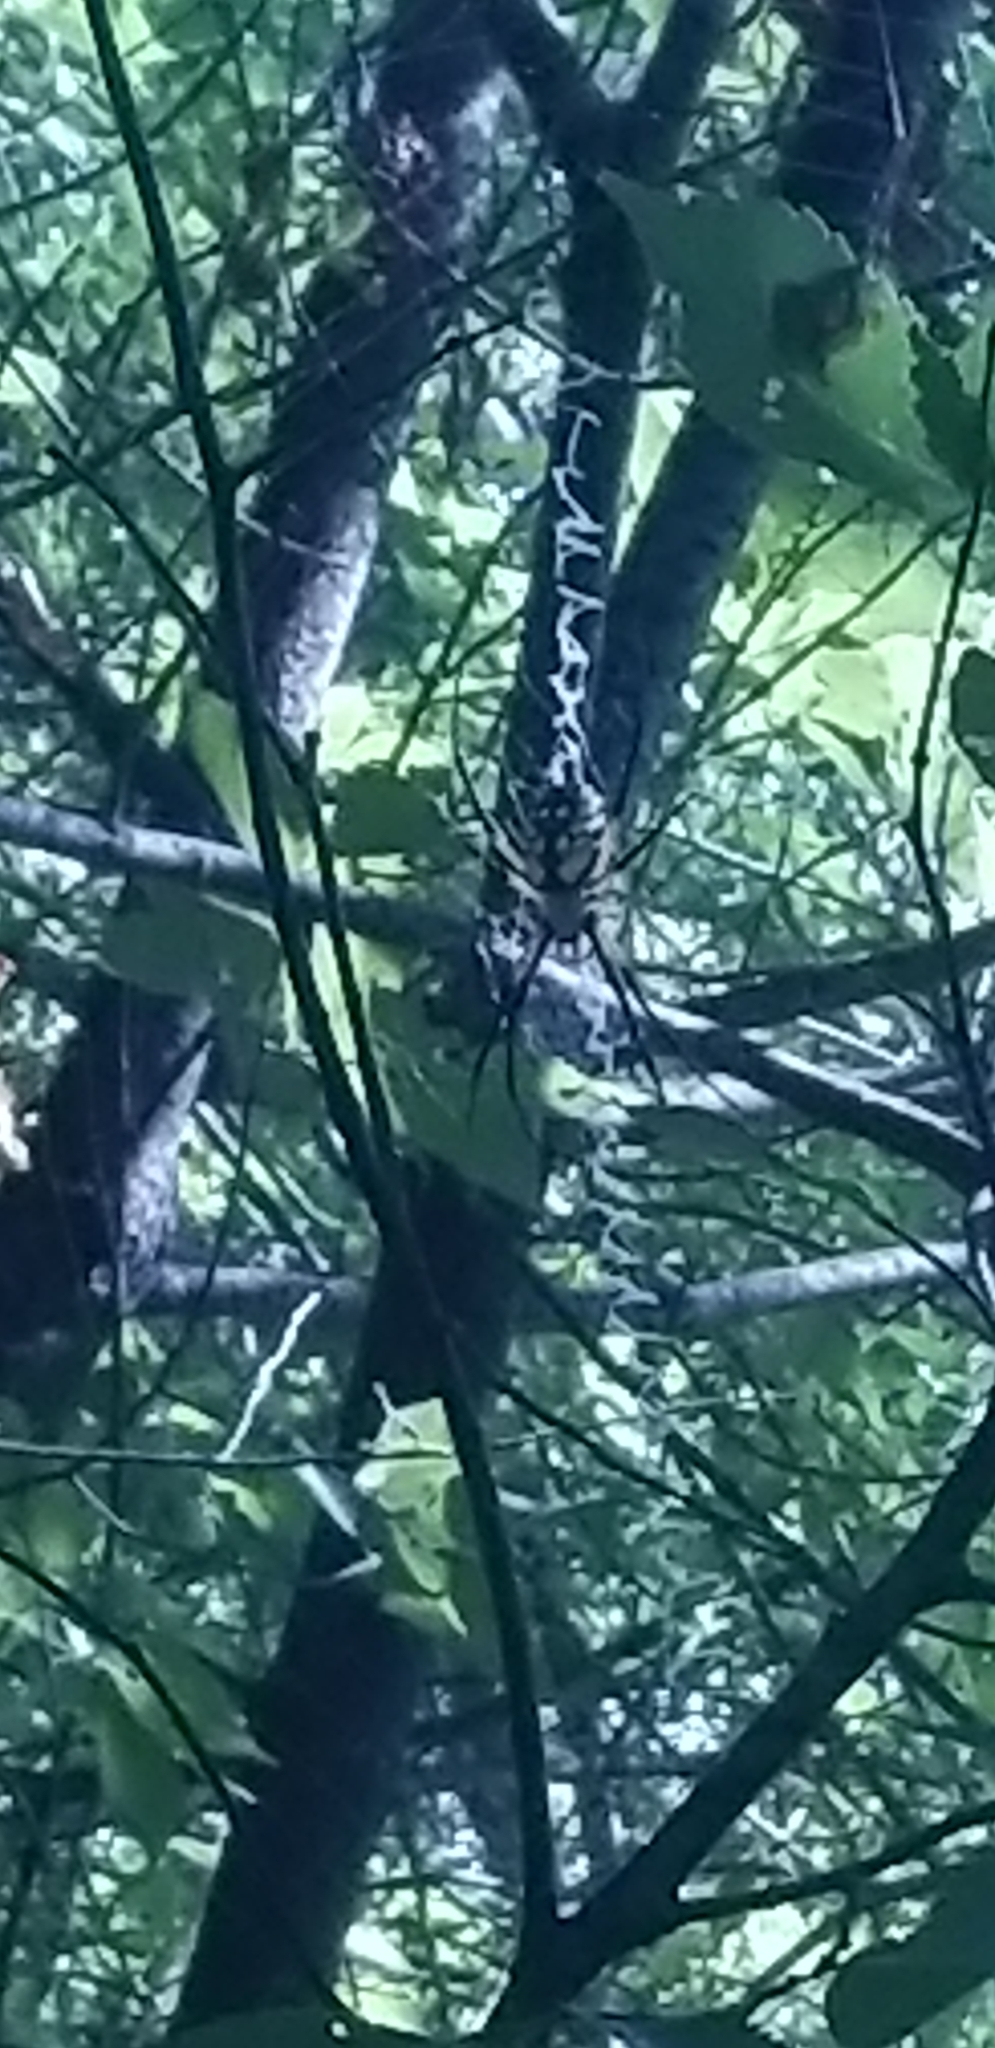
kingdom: Animalia
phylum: Arthropoda
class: Arachnida
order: Araneae
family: Araneidae
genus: Argiope
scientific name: Argiope aurantia
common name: Orb weavers
